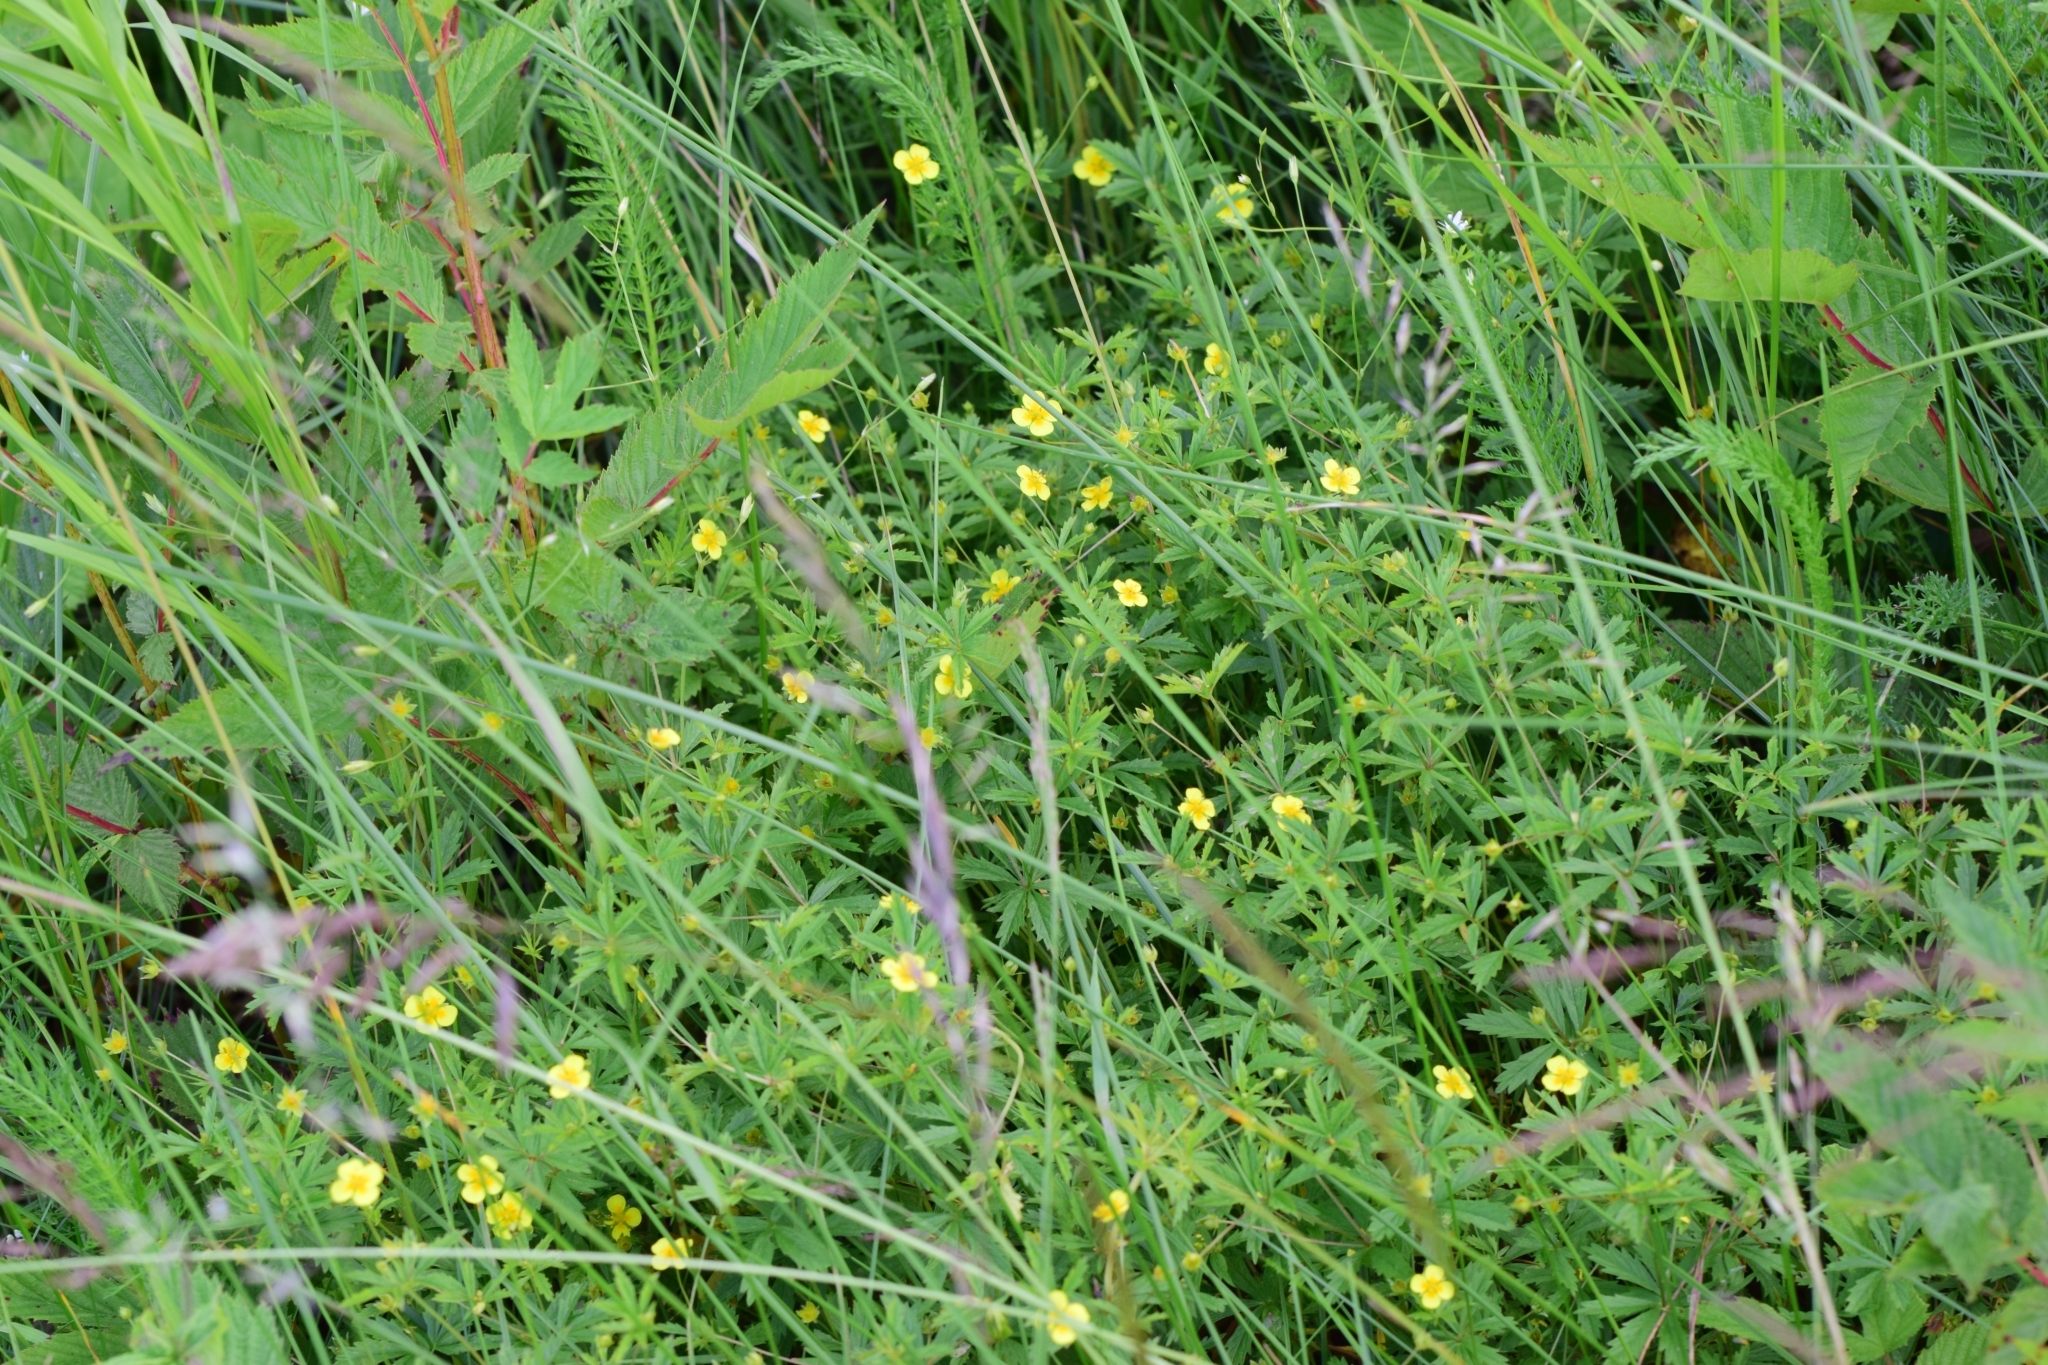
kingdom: Plantae
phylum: Tracheophyta
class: Magnoliopsida
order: Rosales
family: Rosaceae
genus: Potentilla
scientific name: Potentilla erecta
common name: Tormentil
